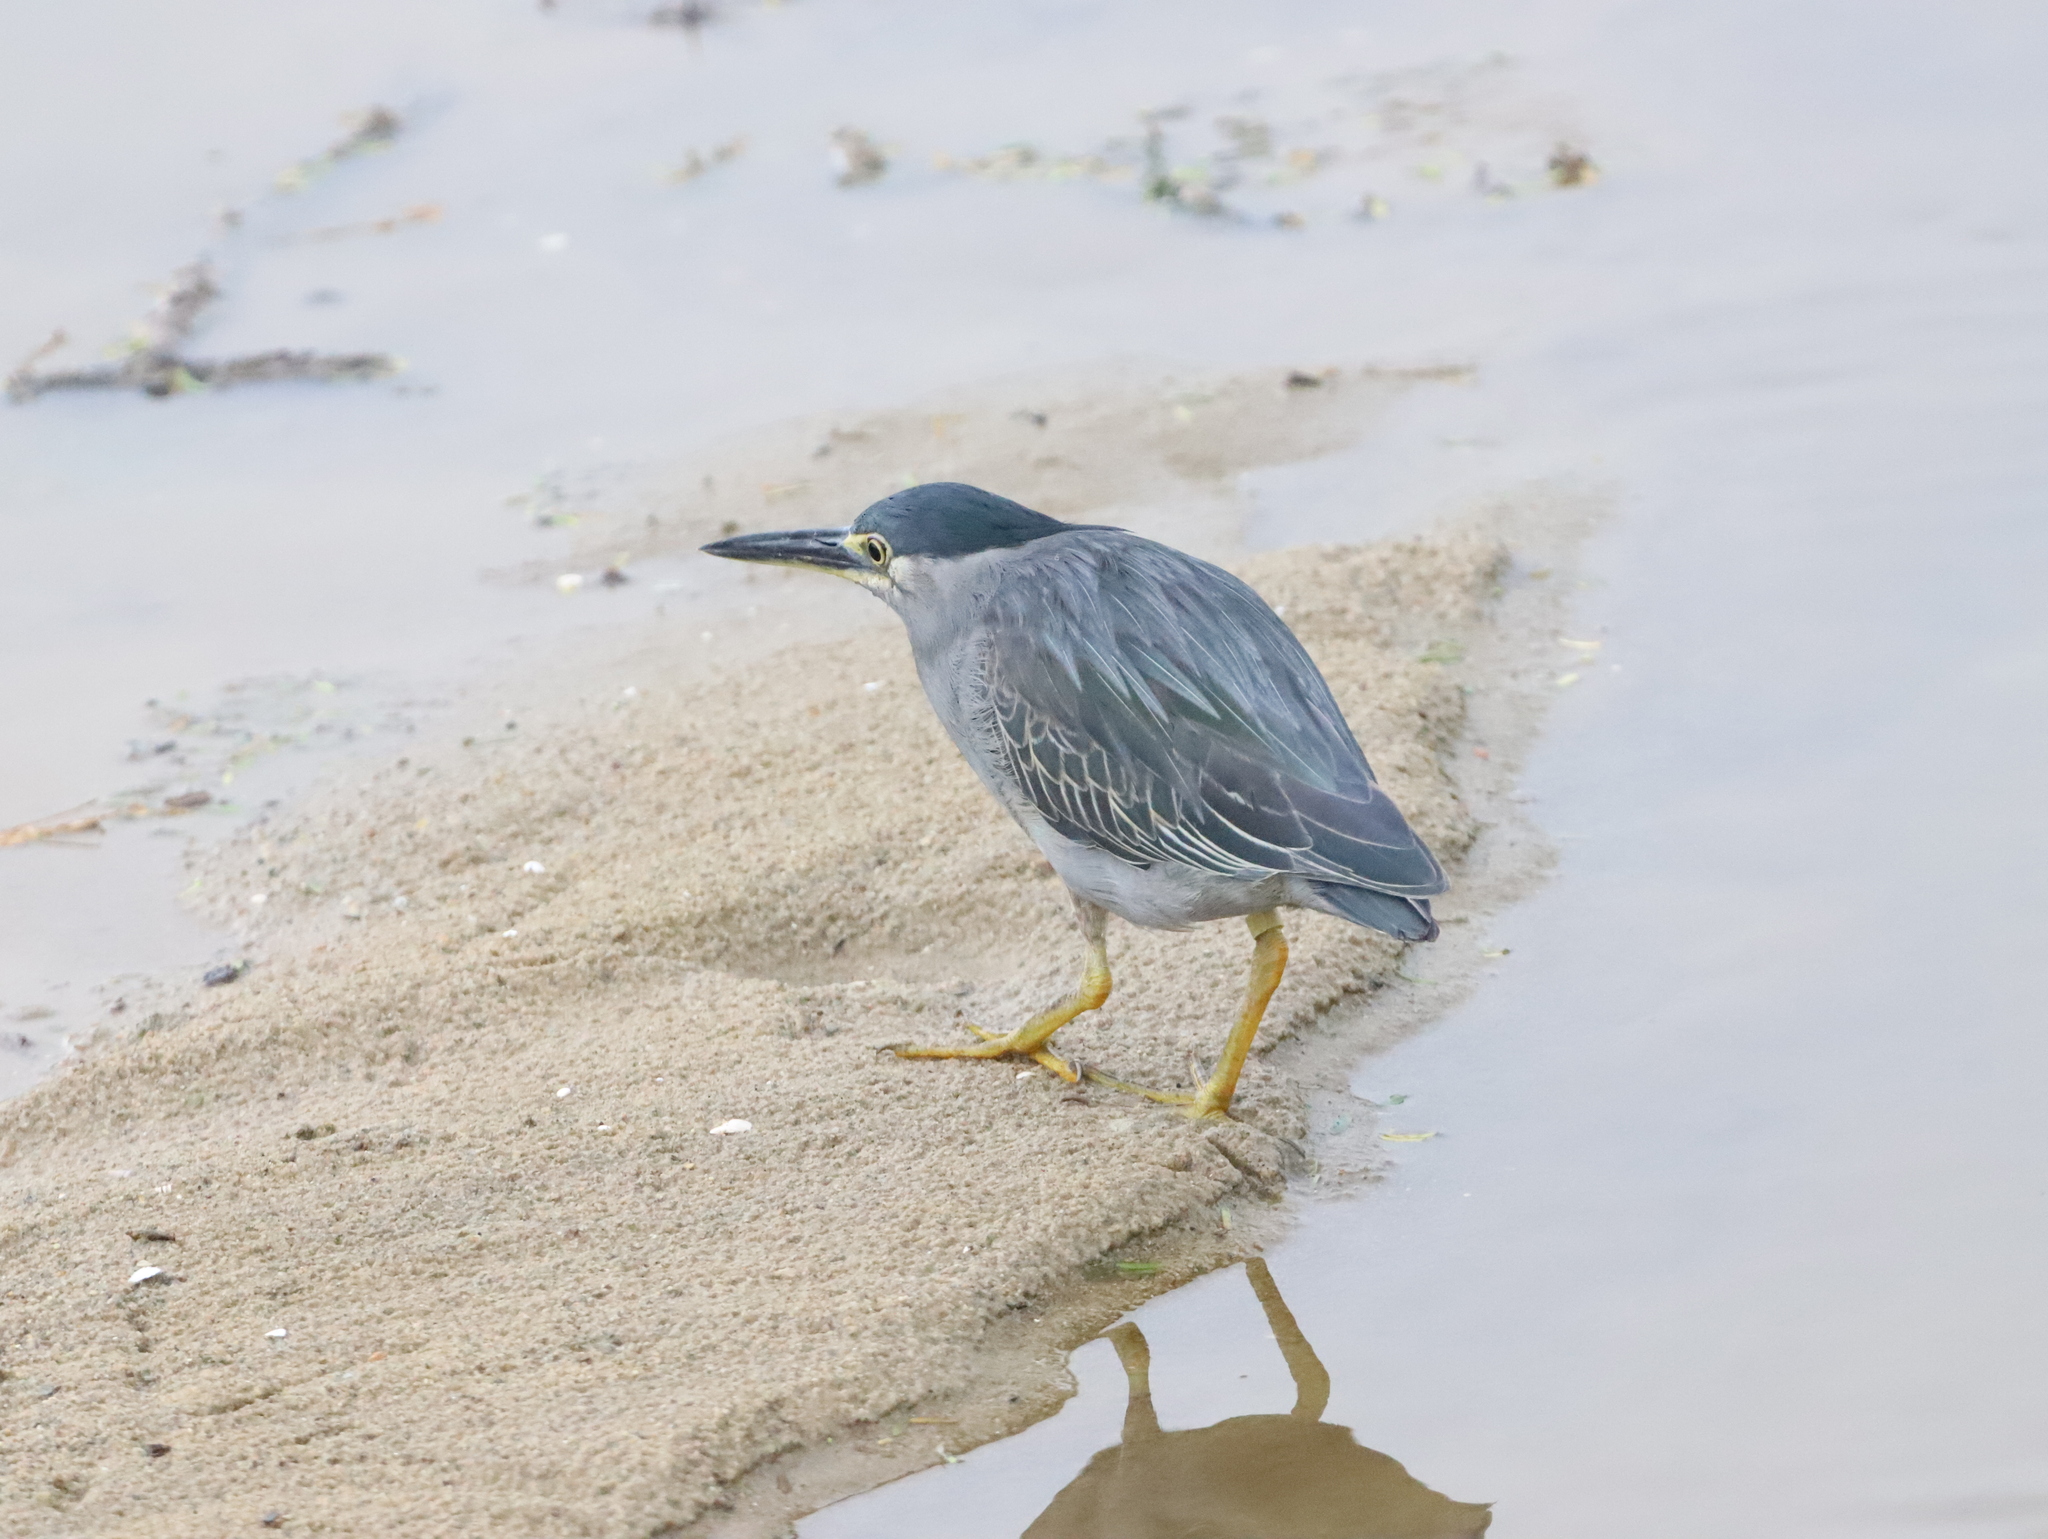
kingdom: Animalia
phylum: Chordata
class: Aves
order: Pelecaniformes
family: Ardeidae
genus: Butorides
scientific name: Butorides striata
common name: Striated heron
